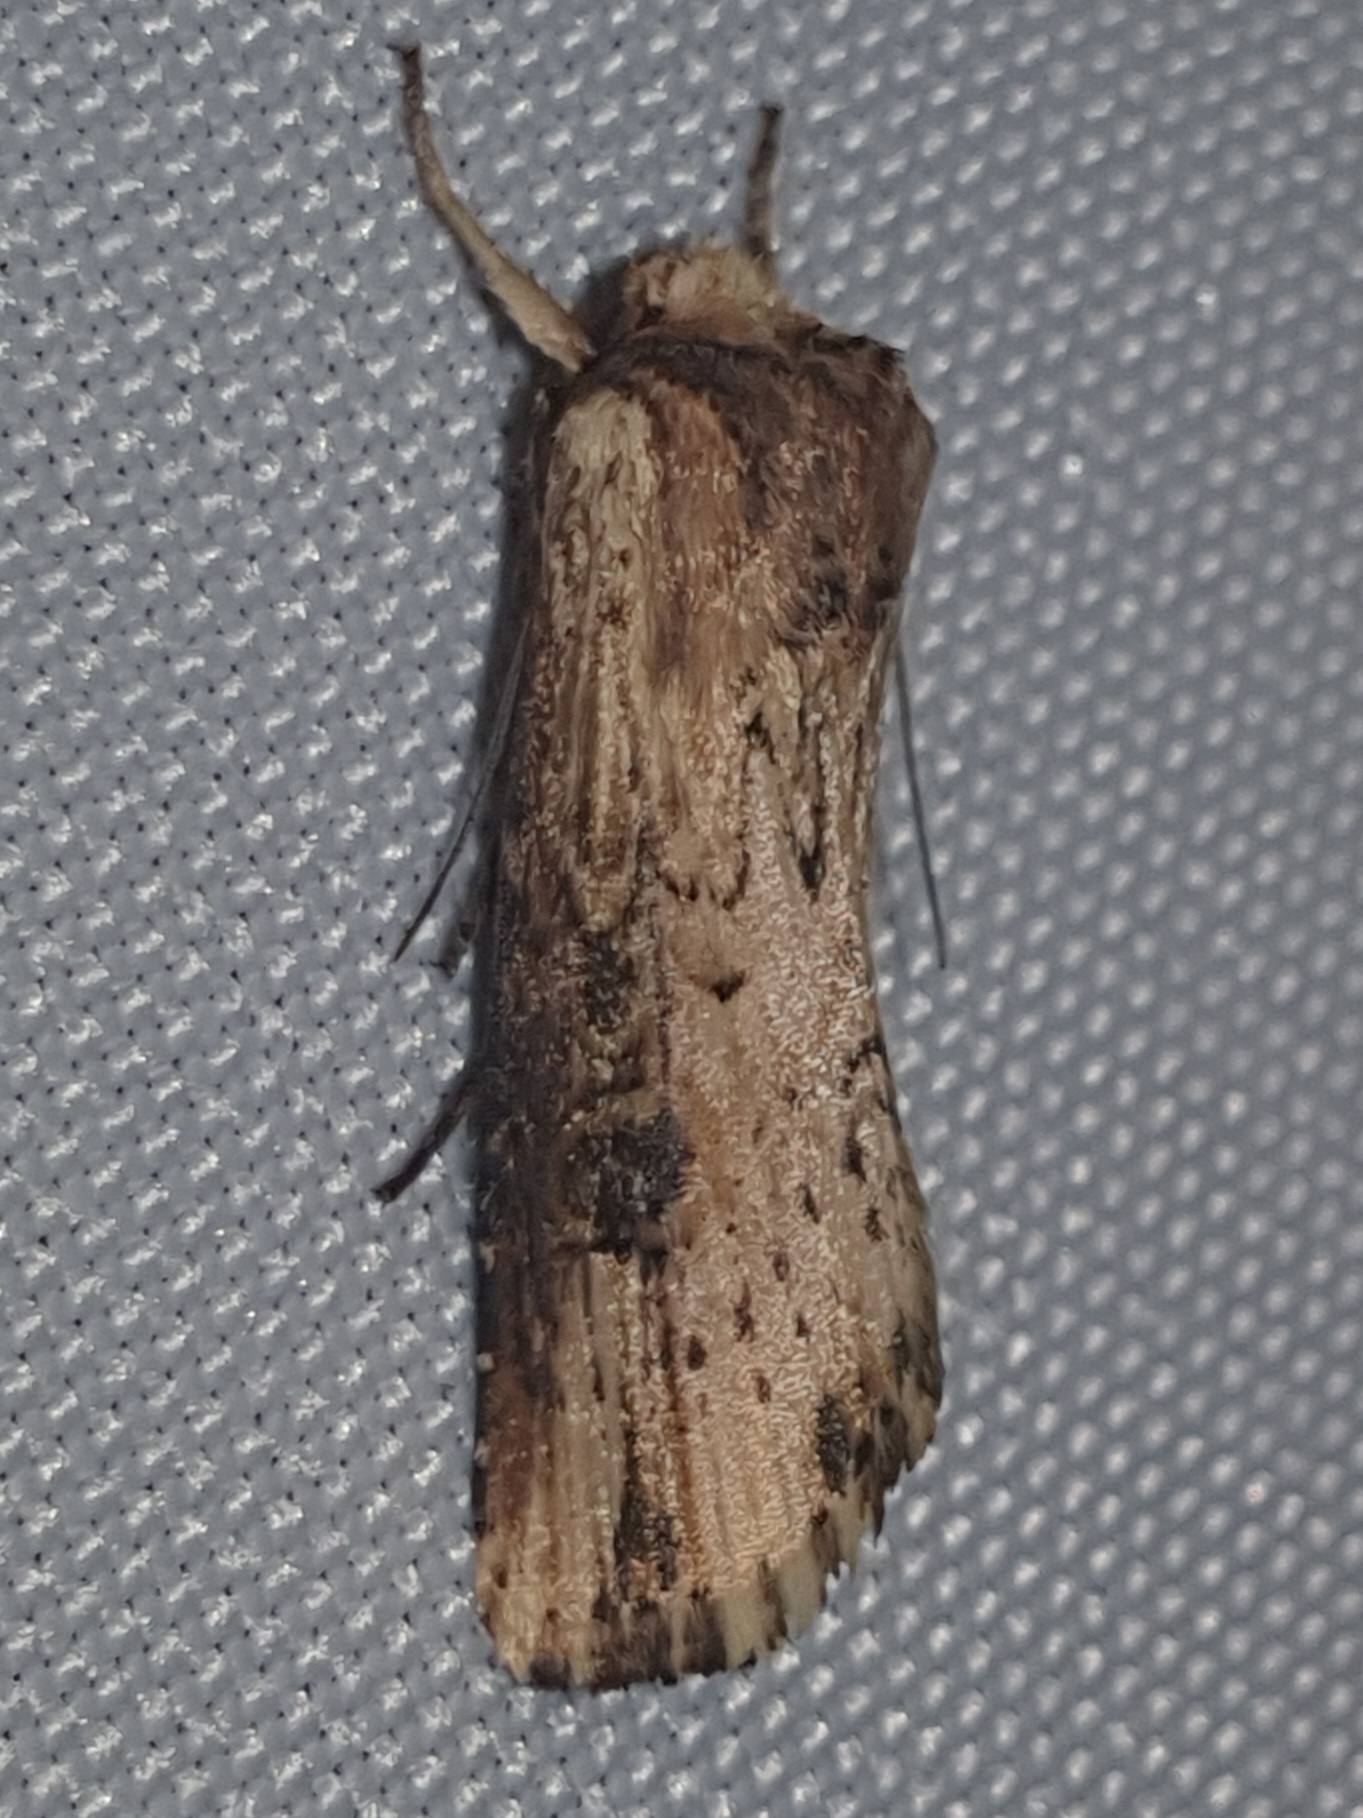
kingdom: Animalia
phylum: Arthropoda
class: Insecta
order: Lepidoptera
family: Noctuidae
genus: Axylia
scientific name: Axylia putris
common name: Flame
